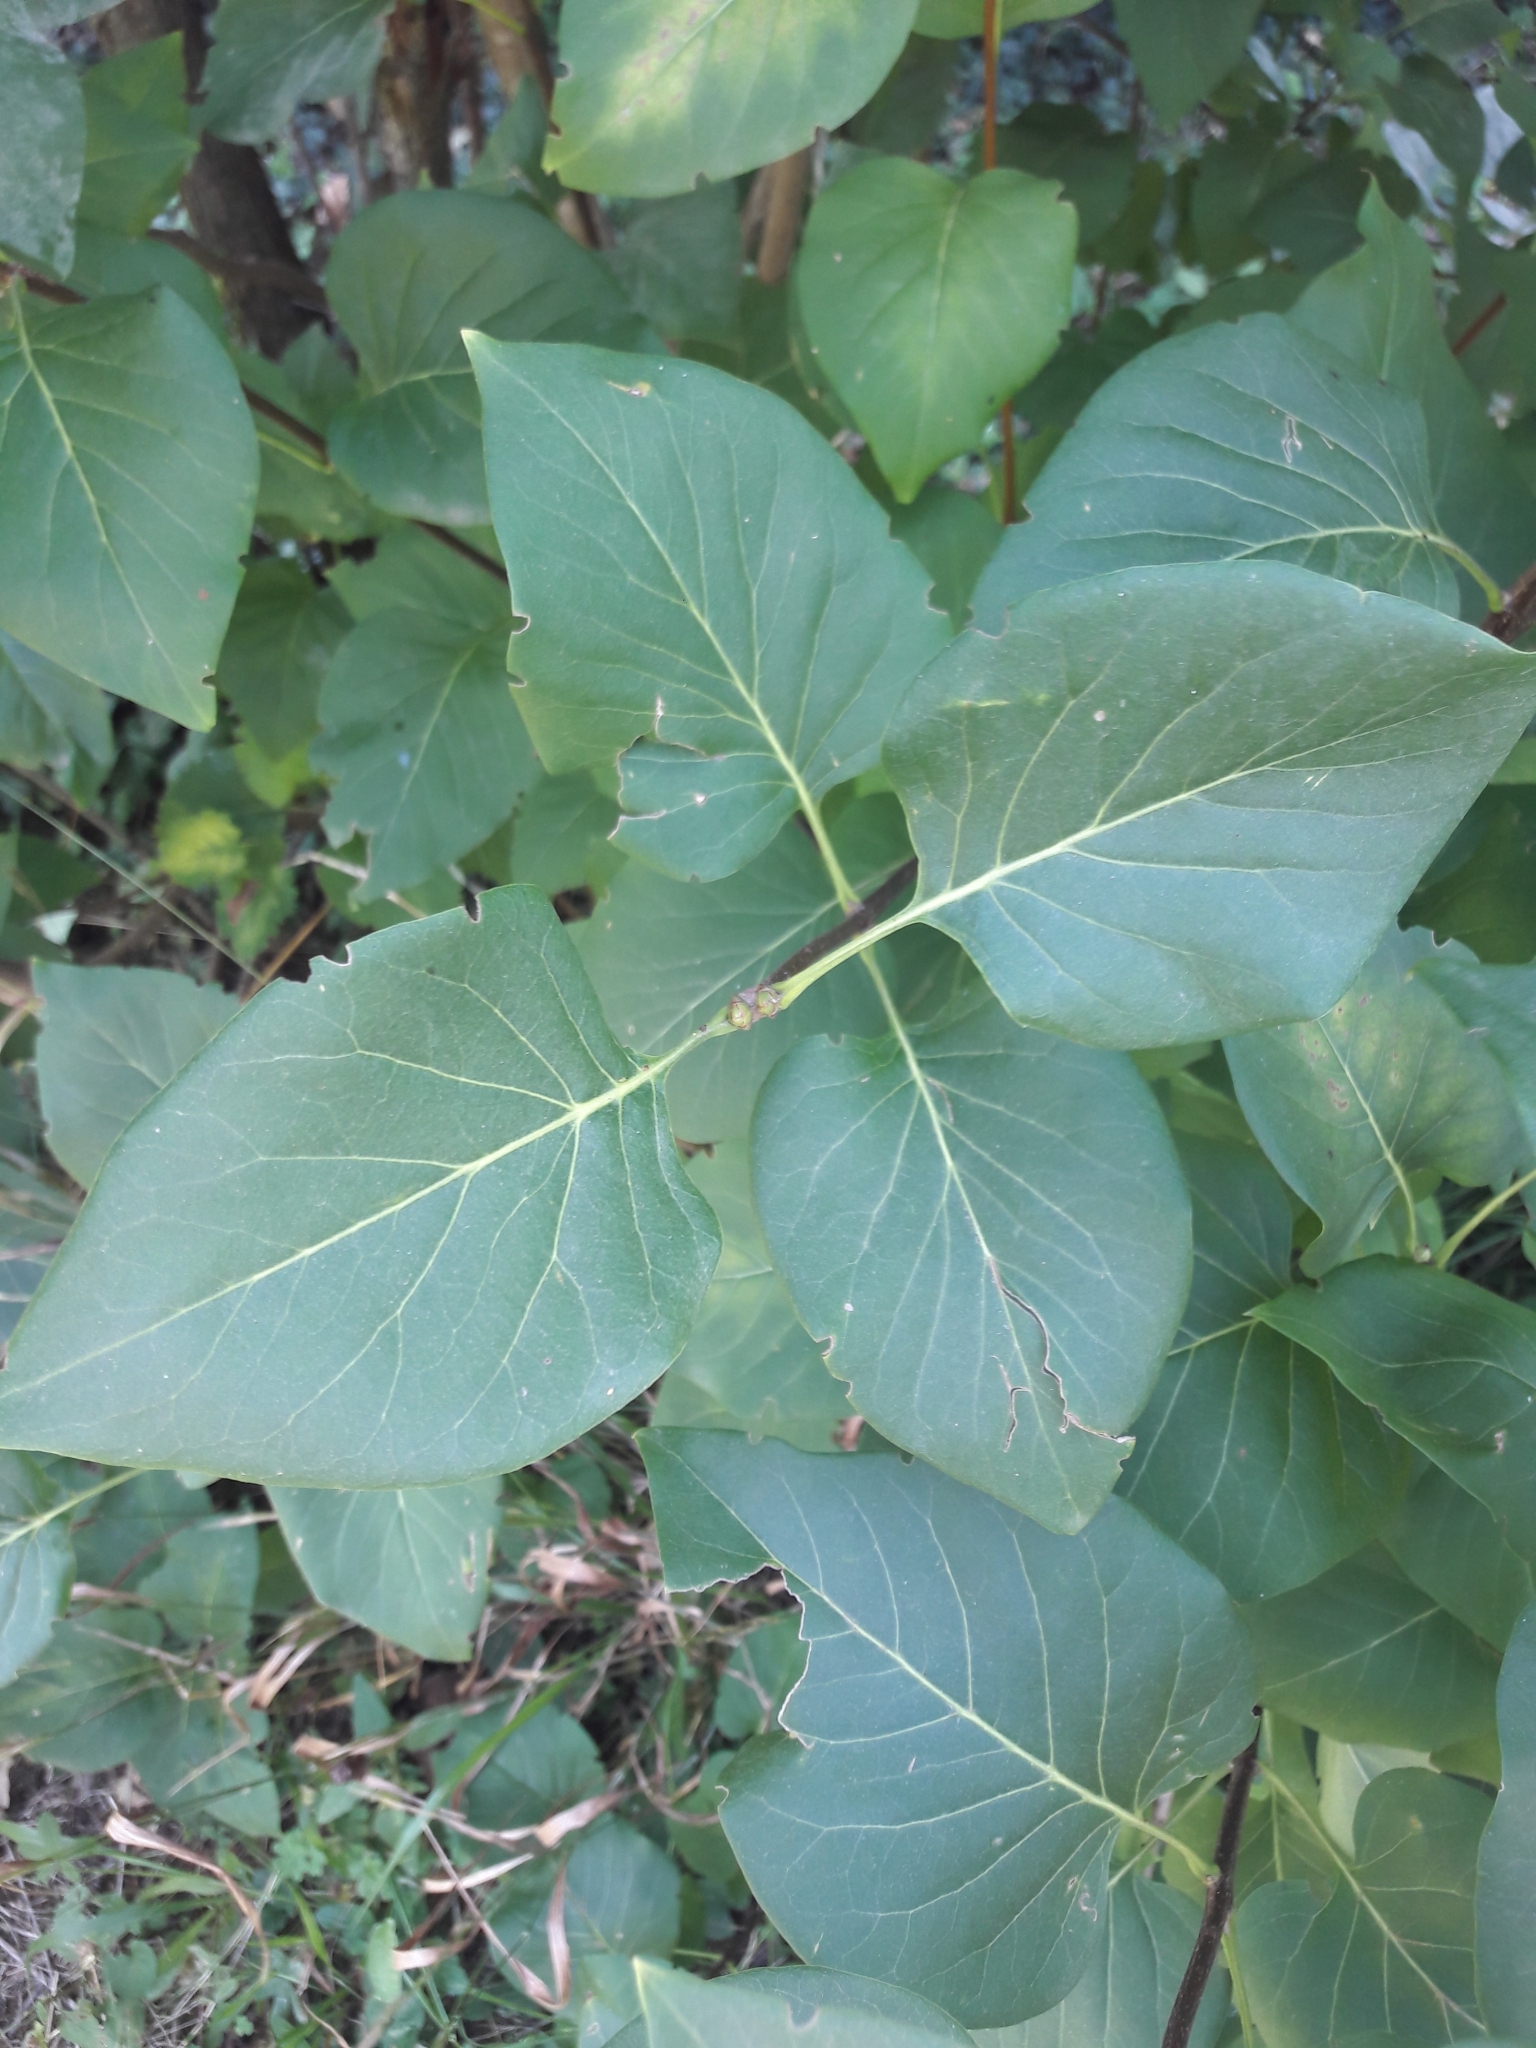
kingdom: Plantae
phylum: Tracheophyta
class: Magnoliopsida
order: Lamiales
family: Oleaceae
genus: Syringa
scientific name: Syringa vulgaris
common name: Common lilac
